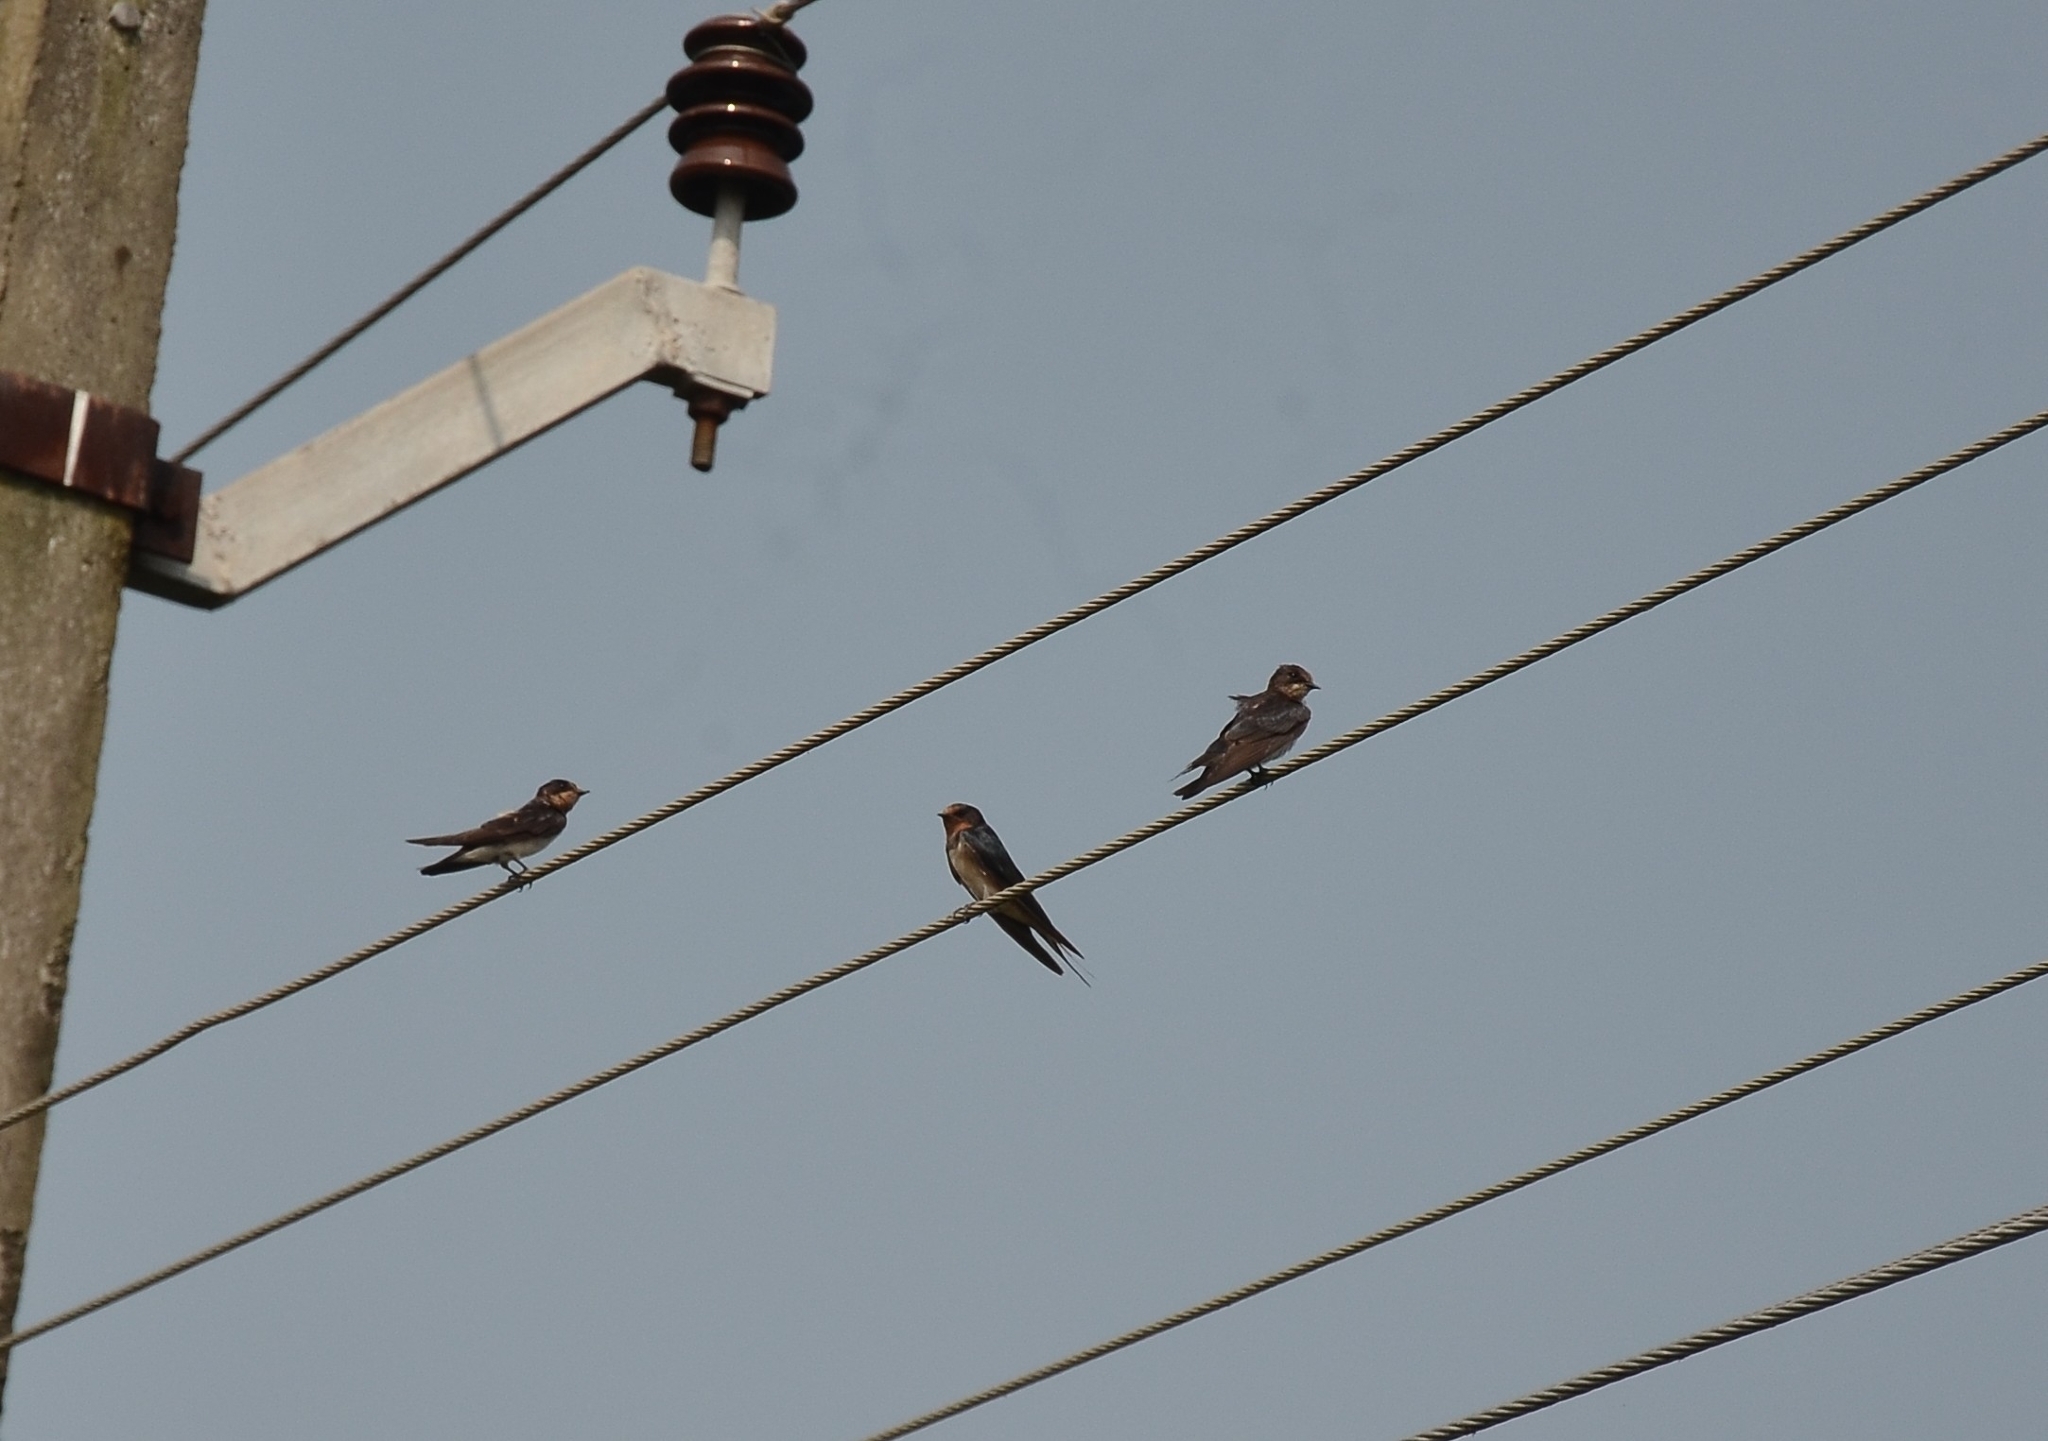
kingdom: Animalia
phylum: Chordata
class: Aves
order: Passeriformes
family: Hirundinidae
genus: Hirundo
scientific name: Hirundo rustica
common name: Barn swallow
